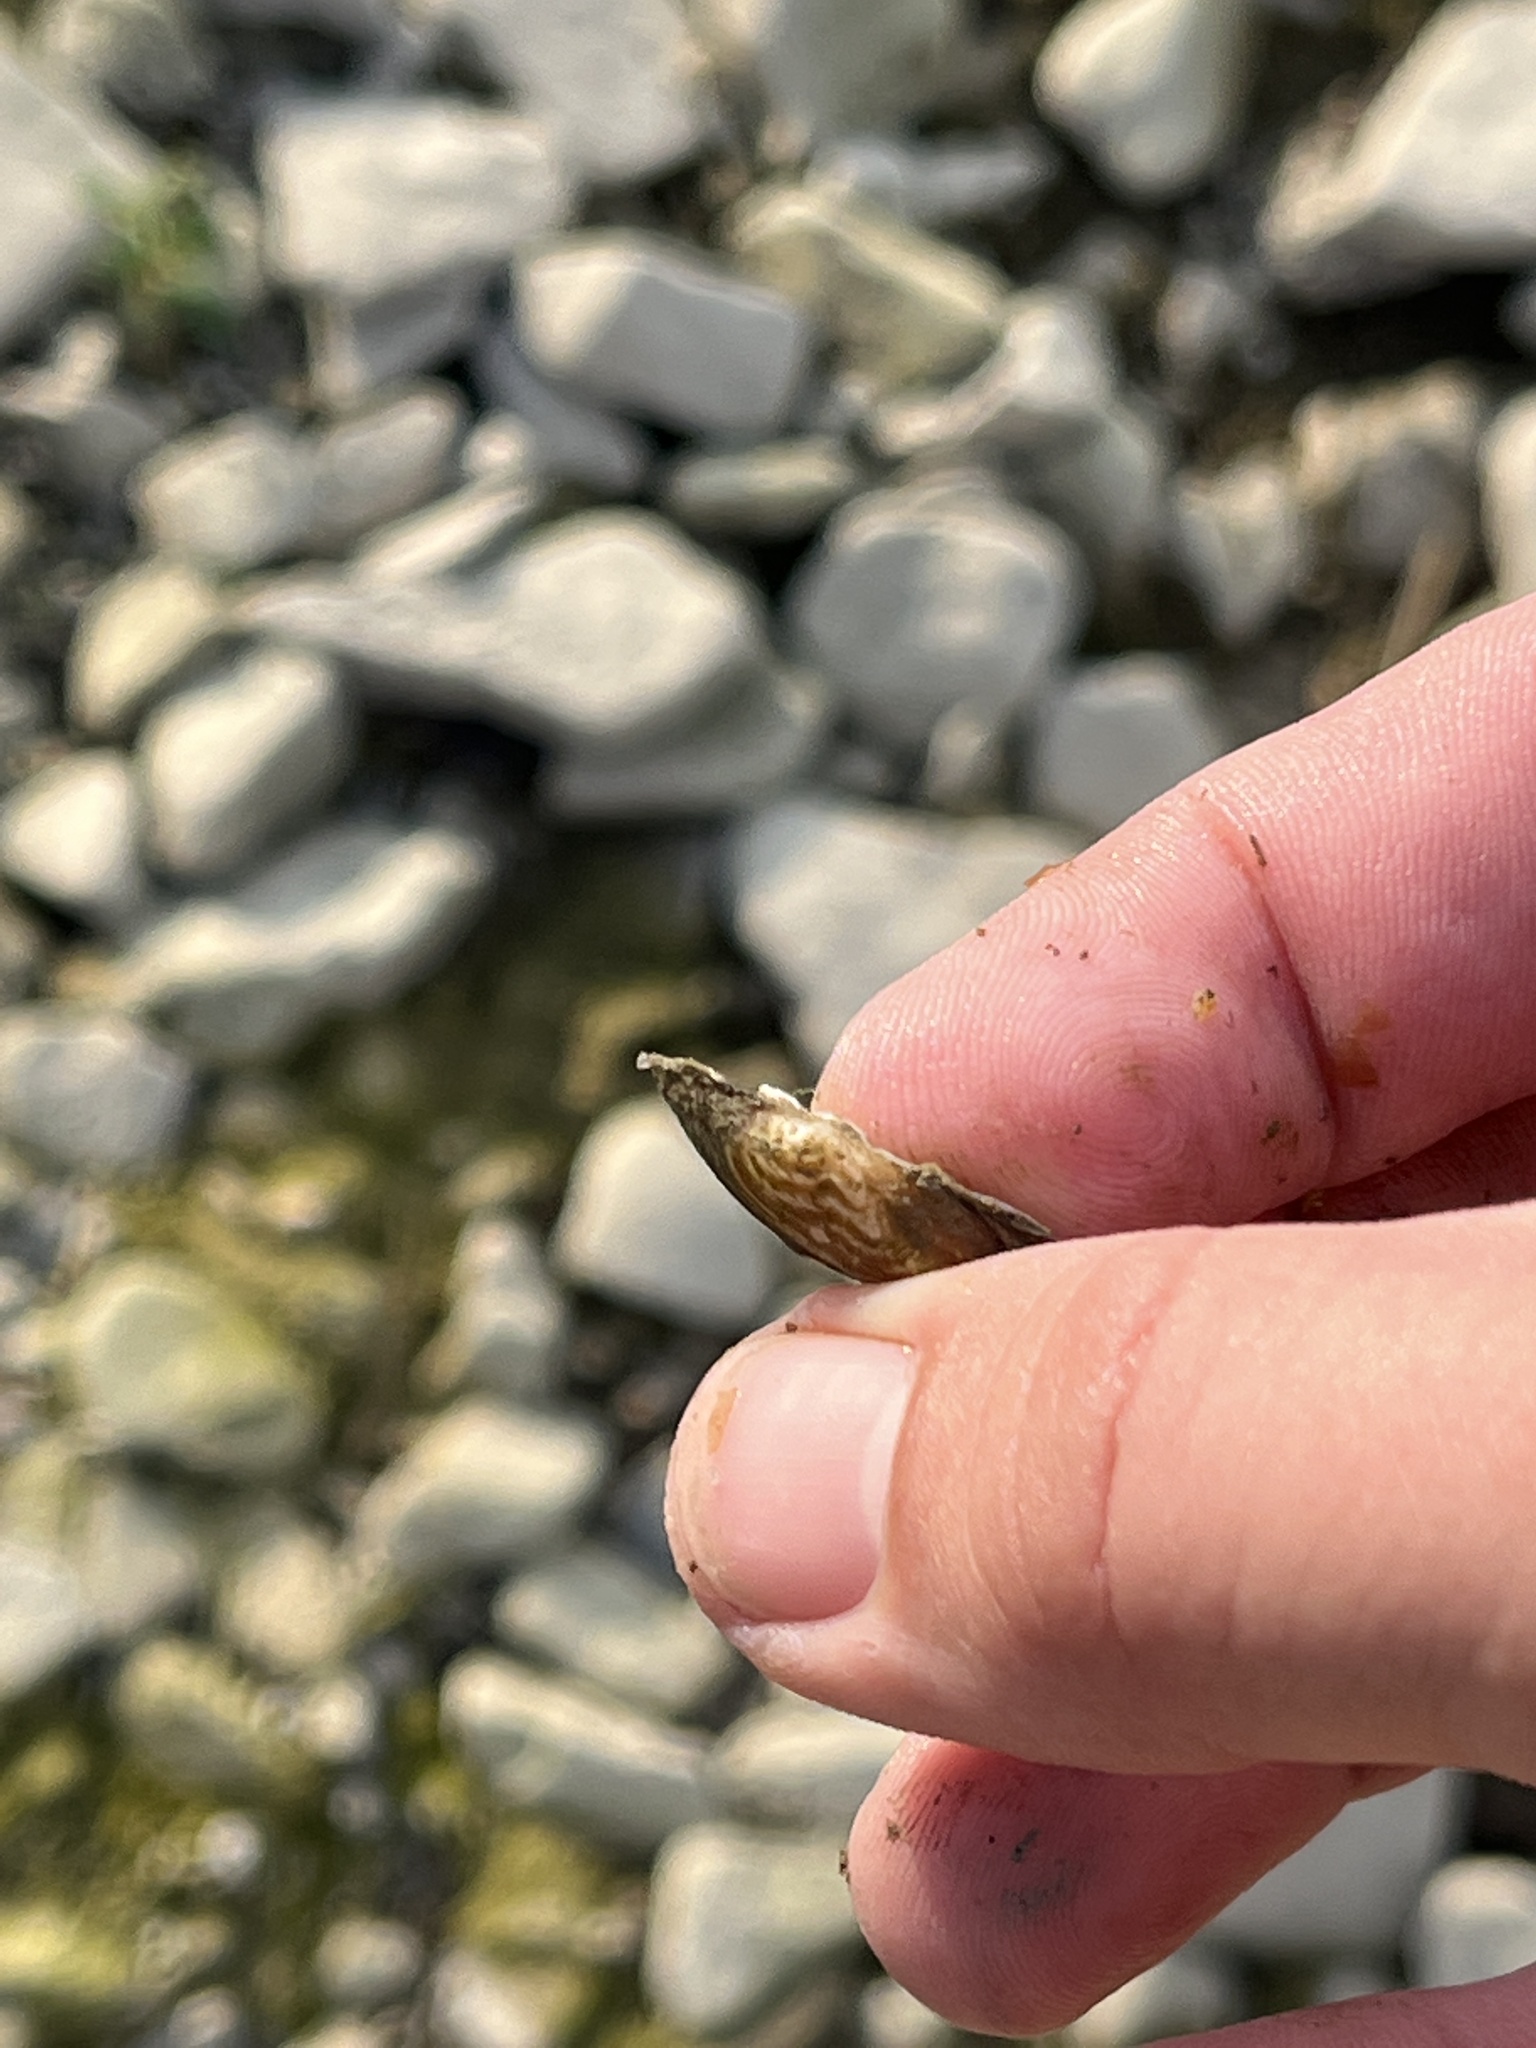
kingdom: Animalia
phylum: Mollusca
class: Bivalvia
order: Unionida
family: Unionidae
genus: Lampsilis
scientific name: Lampsilis siliquoidea
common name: Fatmucket
